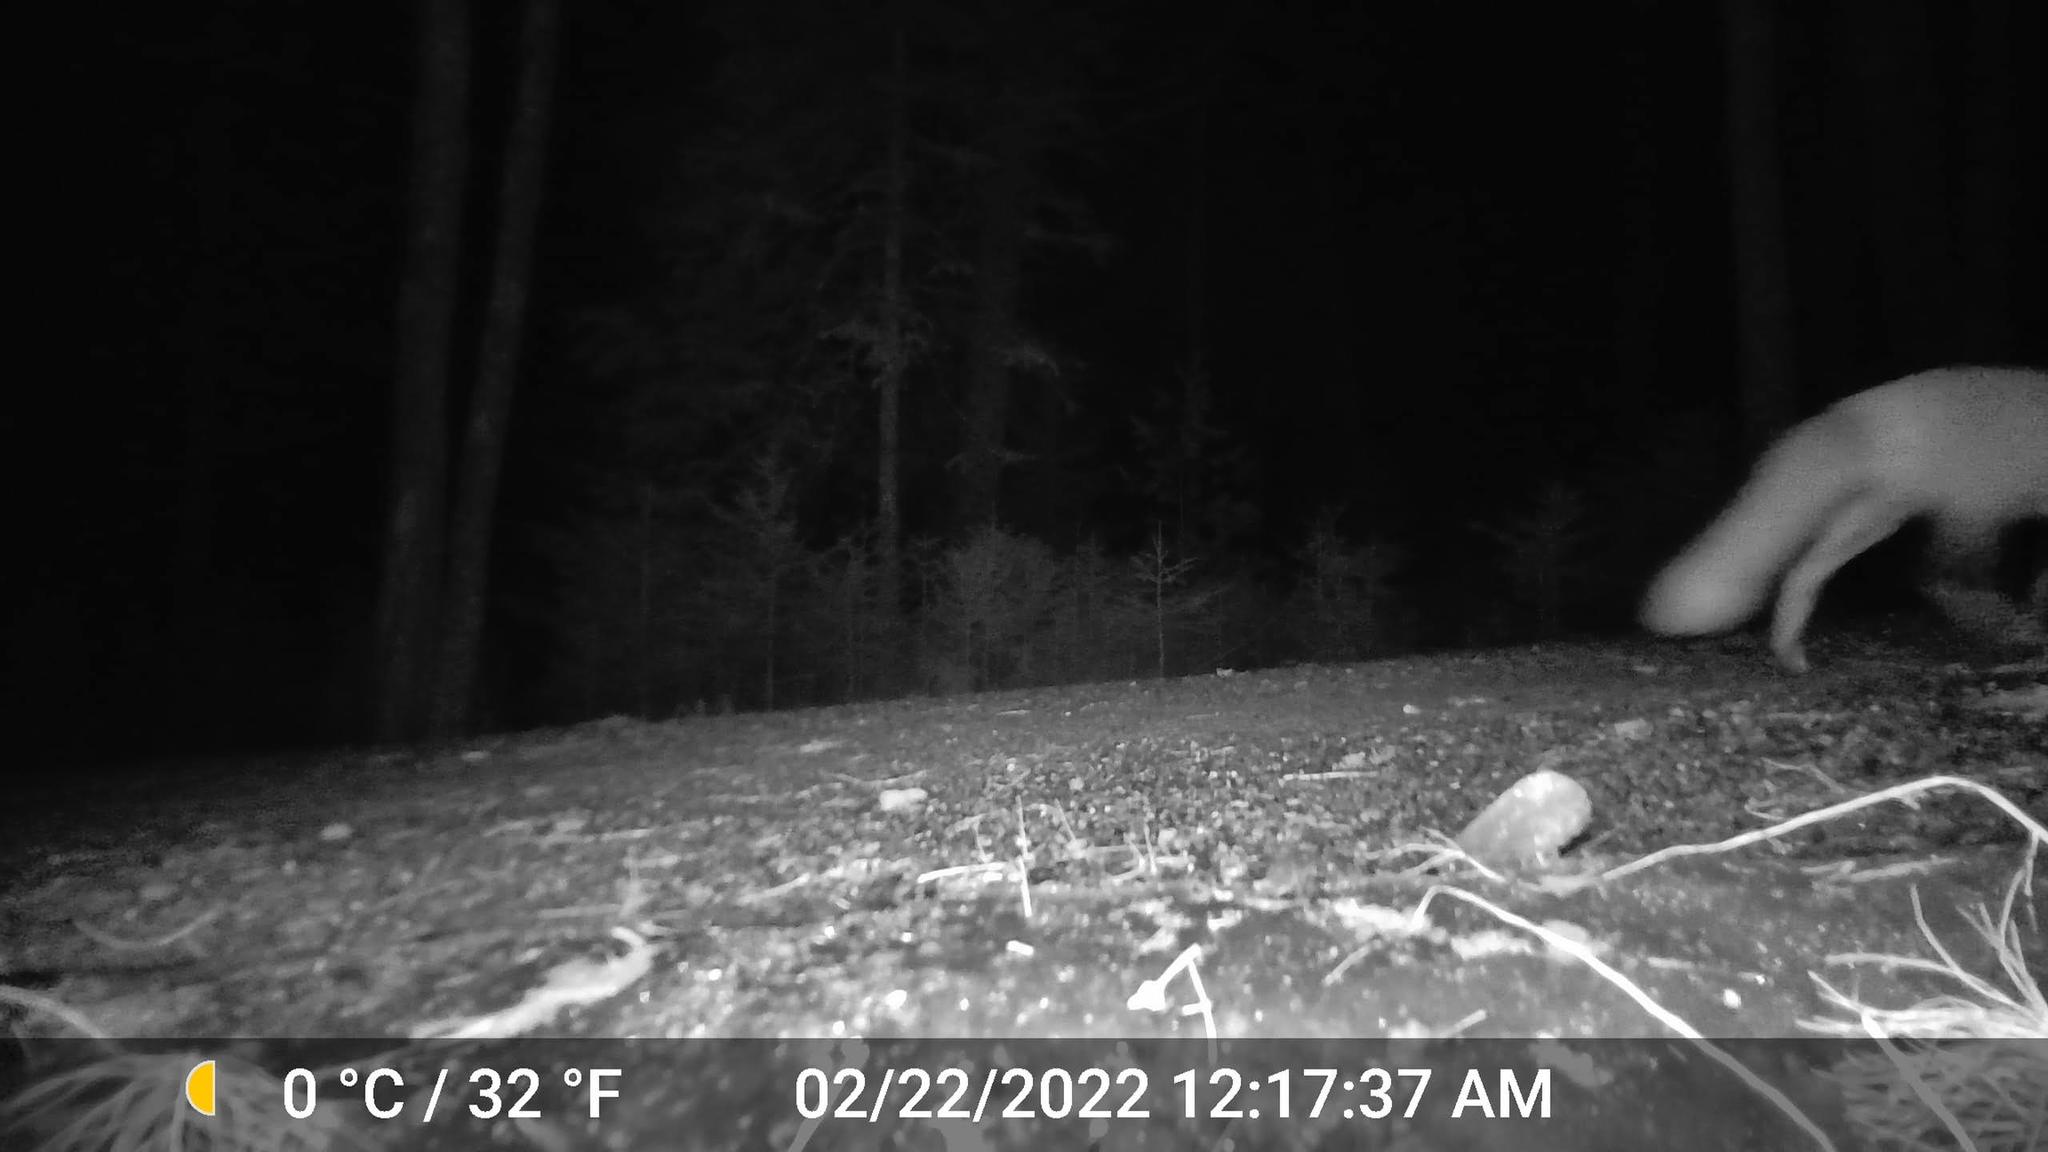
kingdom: Animalia
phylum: Chordata
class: Mammalia
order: Carnivora
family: Canidae
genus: Vulpes
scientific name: Vulpes vulpes
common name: Red fox
